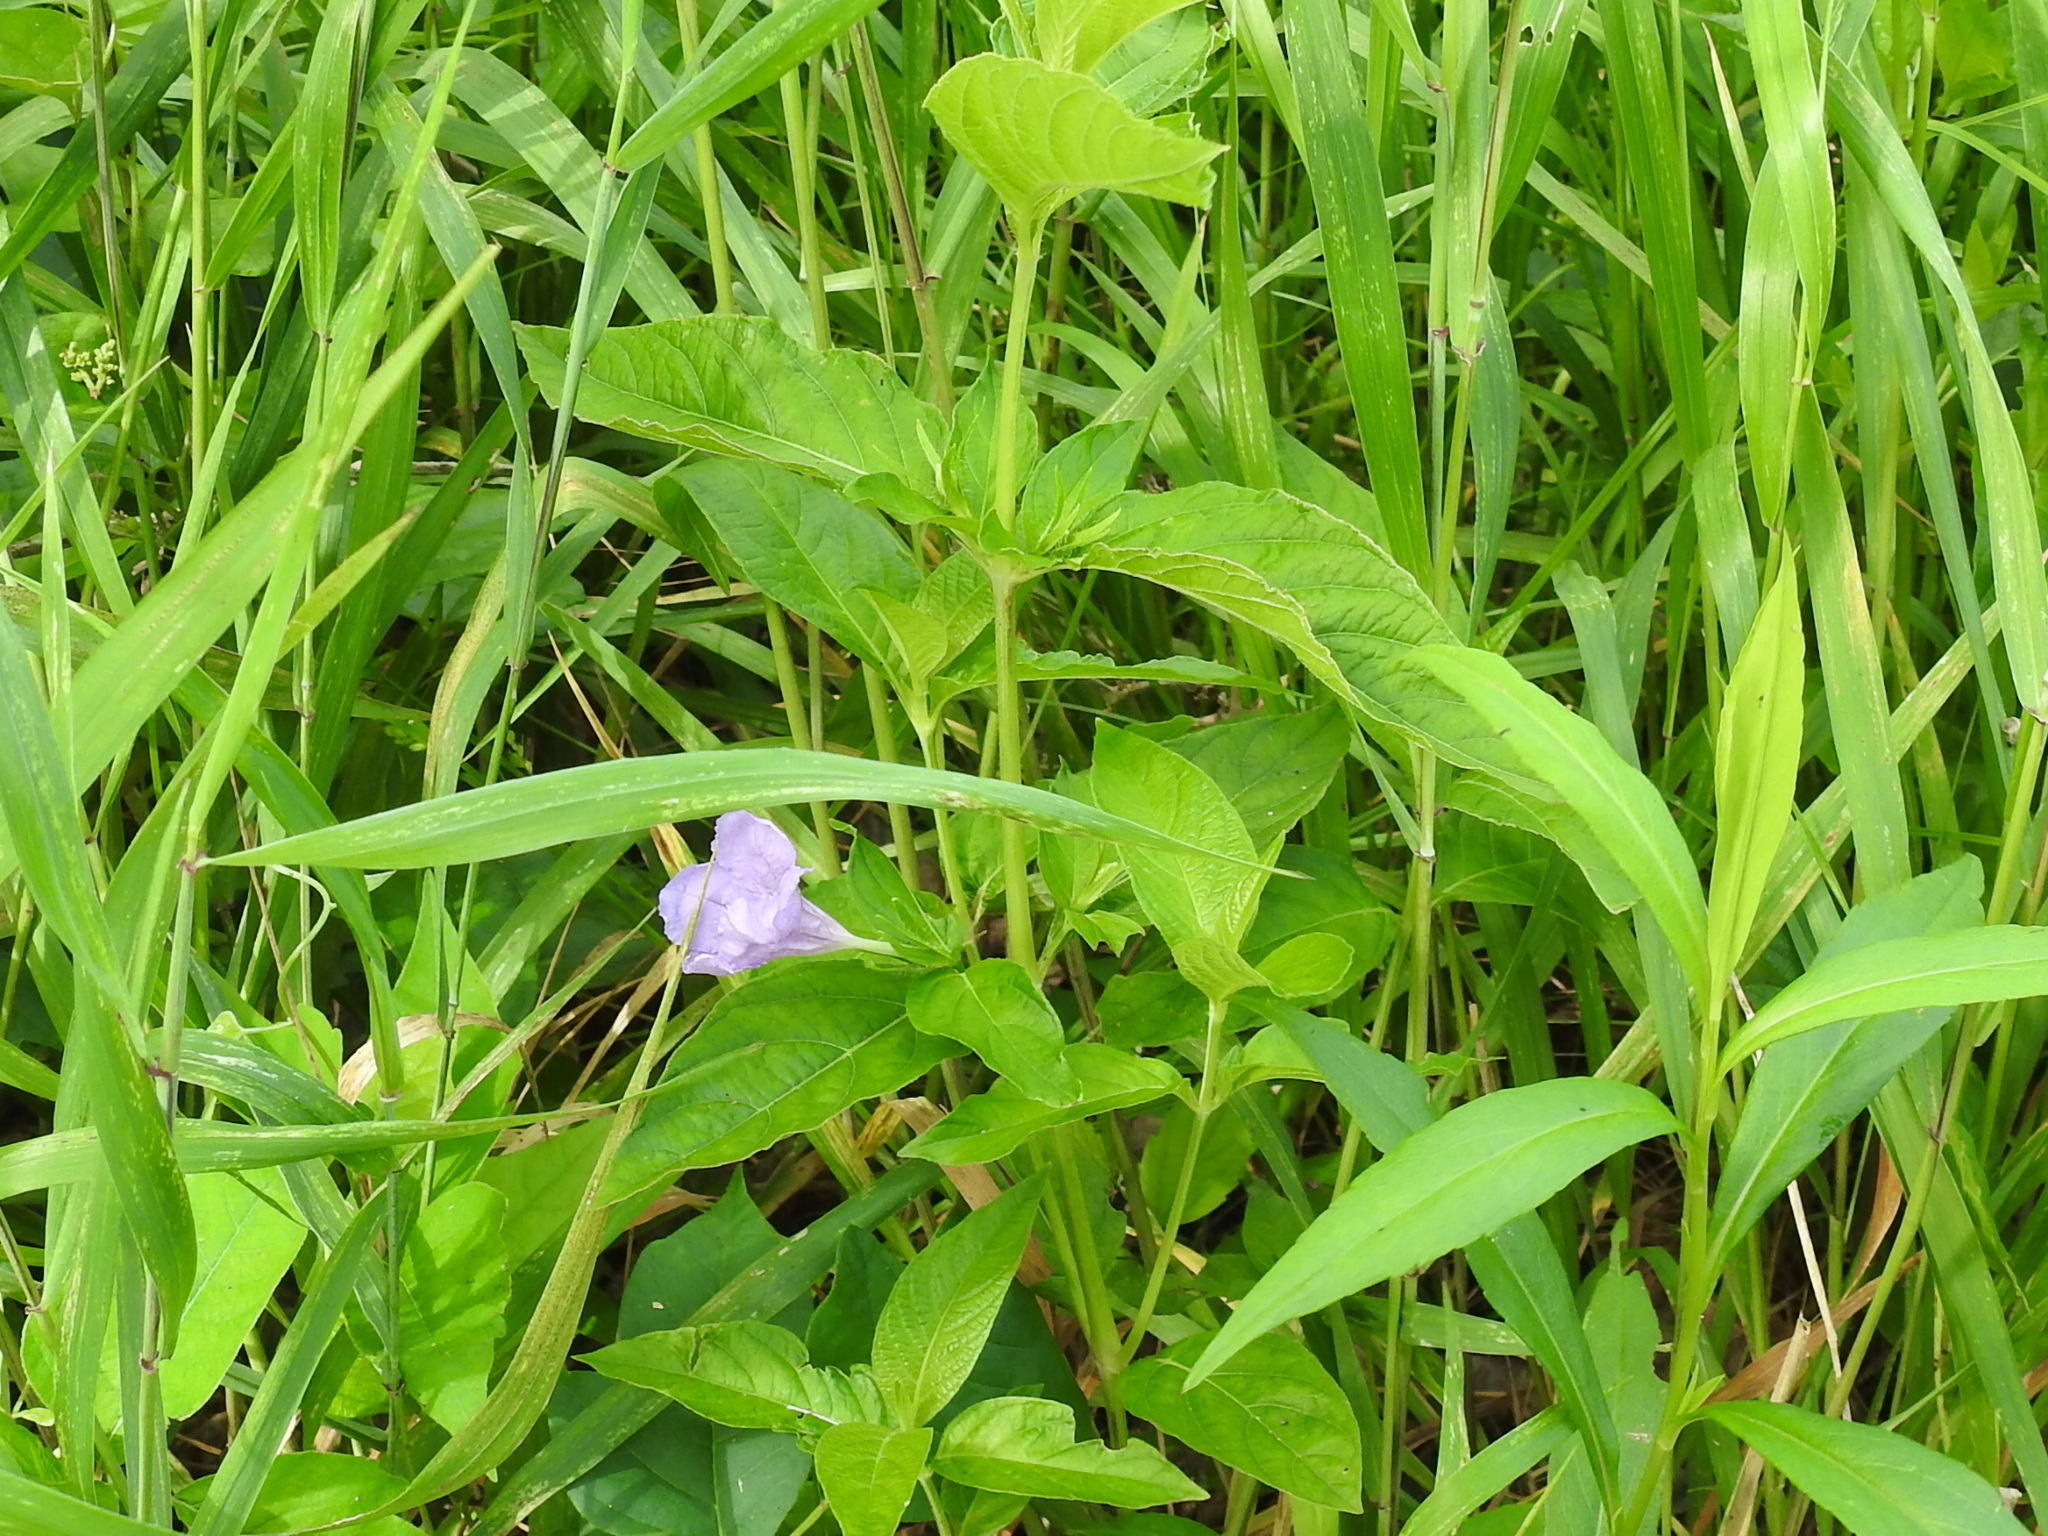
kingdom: Plantae
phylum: Tracheophyta
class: Magnoliopsida
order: Lamiales
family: Acanthaceae
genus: Ruellia
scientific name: Ruellia ciliatiflora
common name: Hairyflower wild petunia
